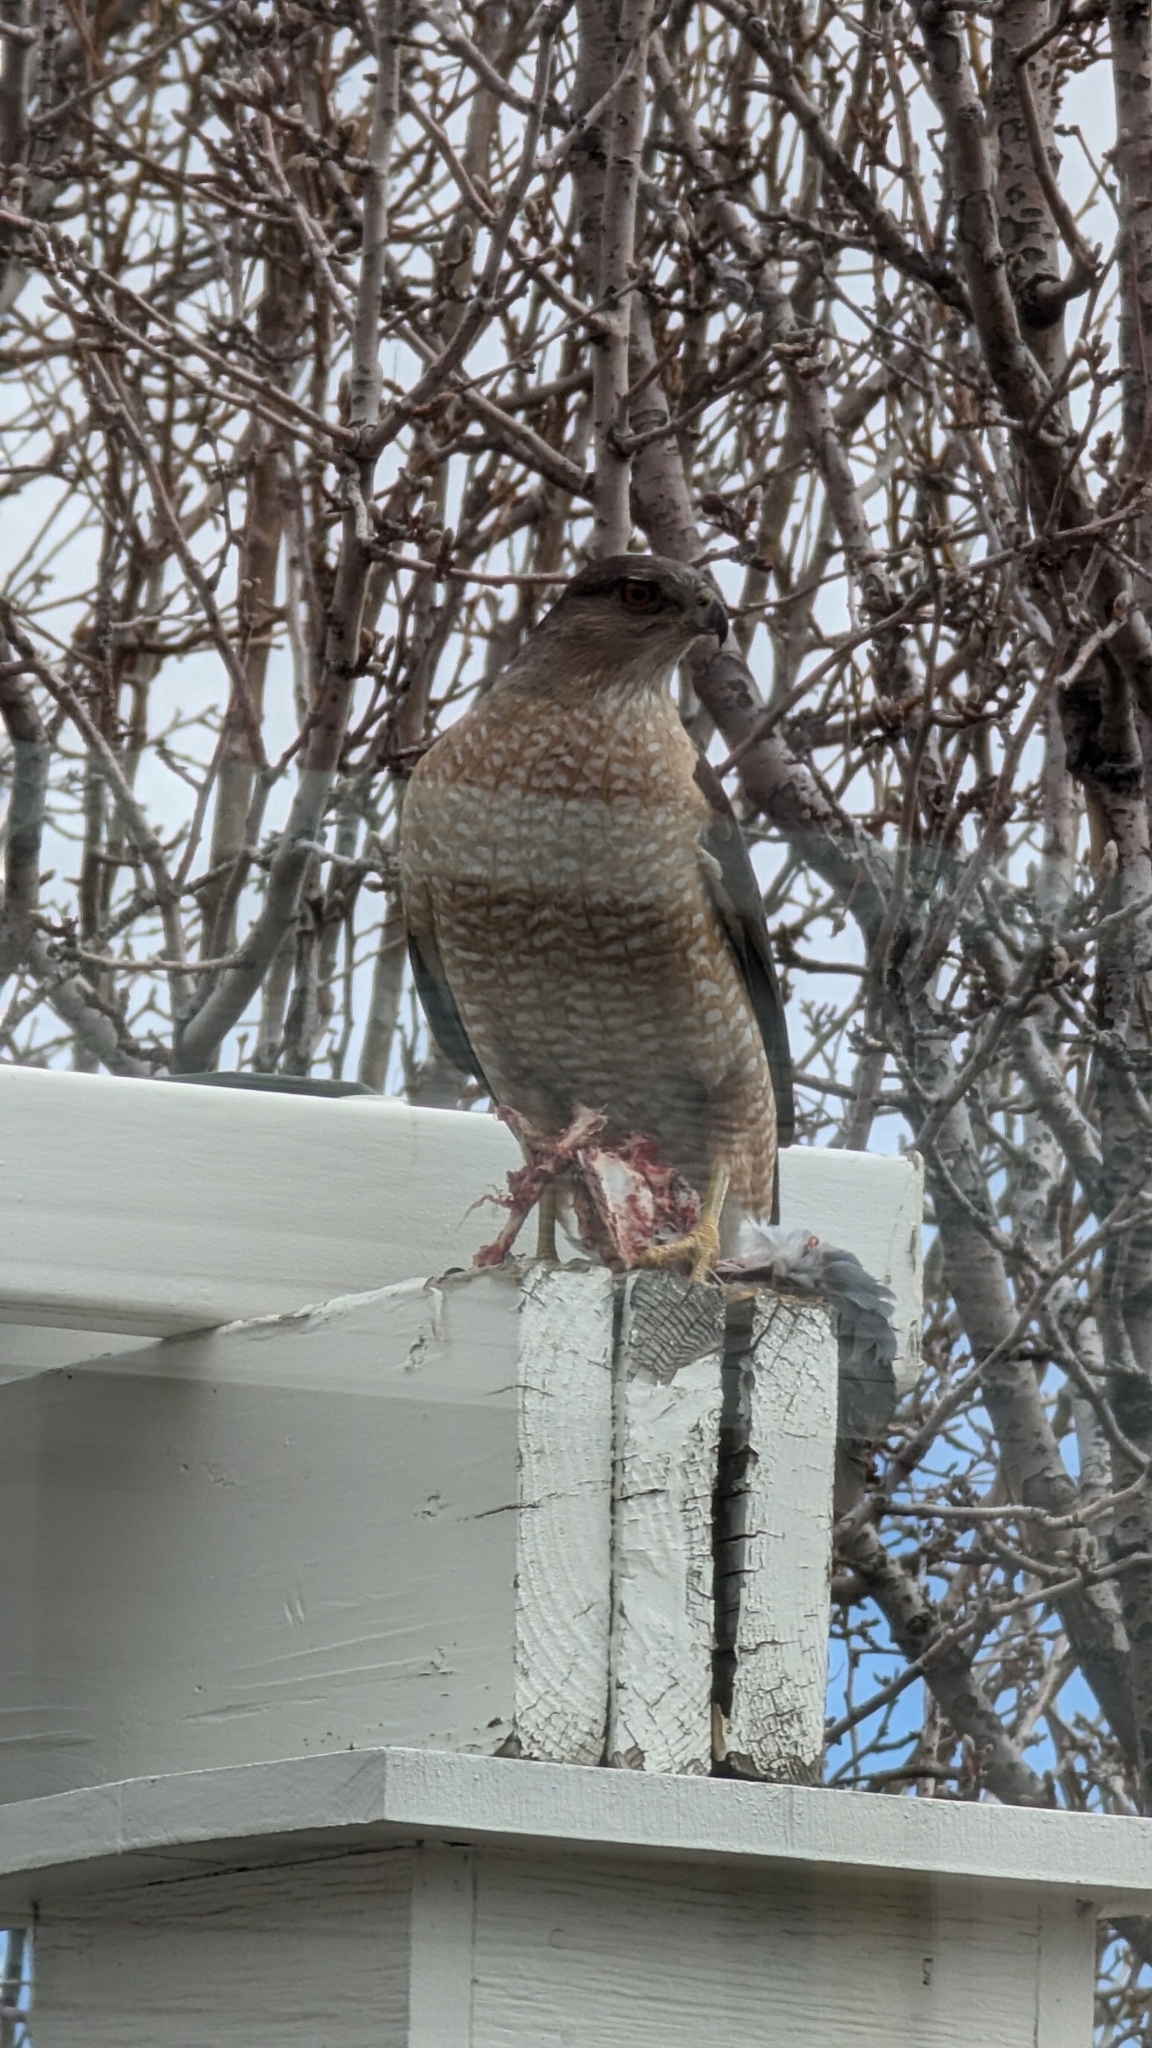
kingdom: Animalia
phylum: Chordata
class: Aves
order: Accipitriformes
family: Accipitridae
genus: Accipiter
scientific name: Accipiter cooperii
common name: Cooper's hawk
